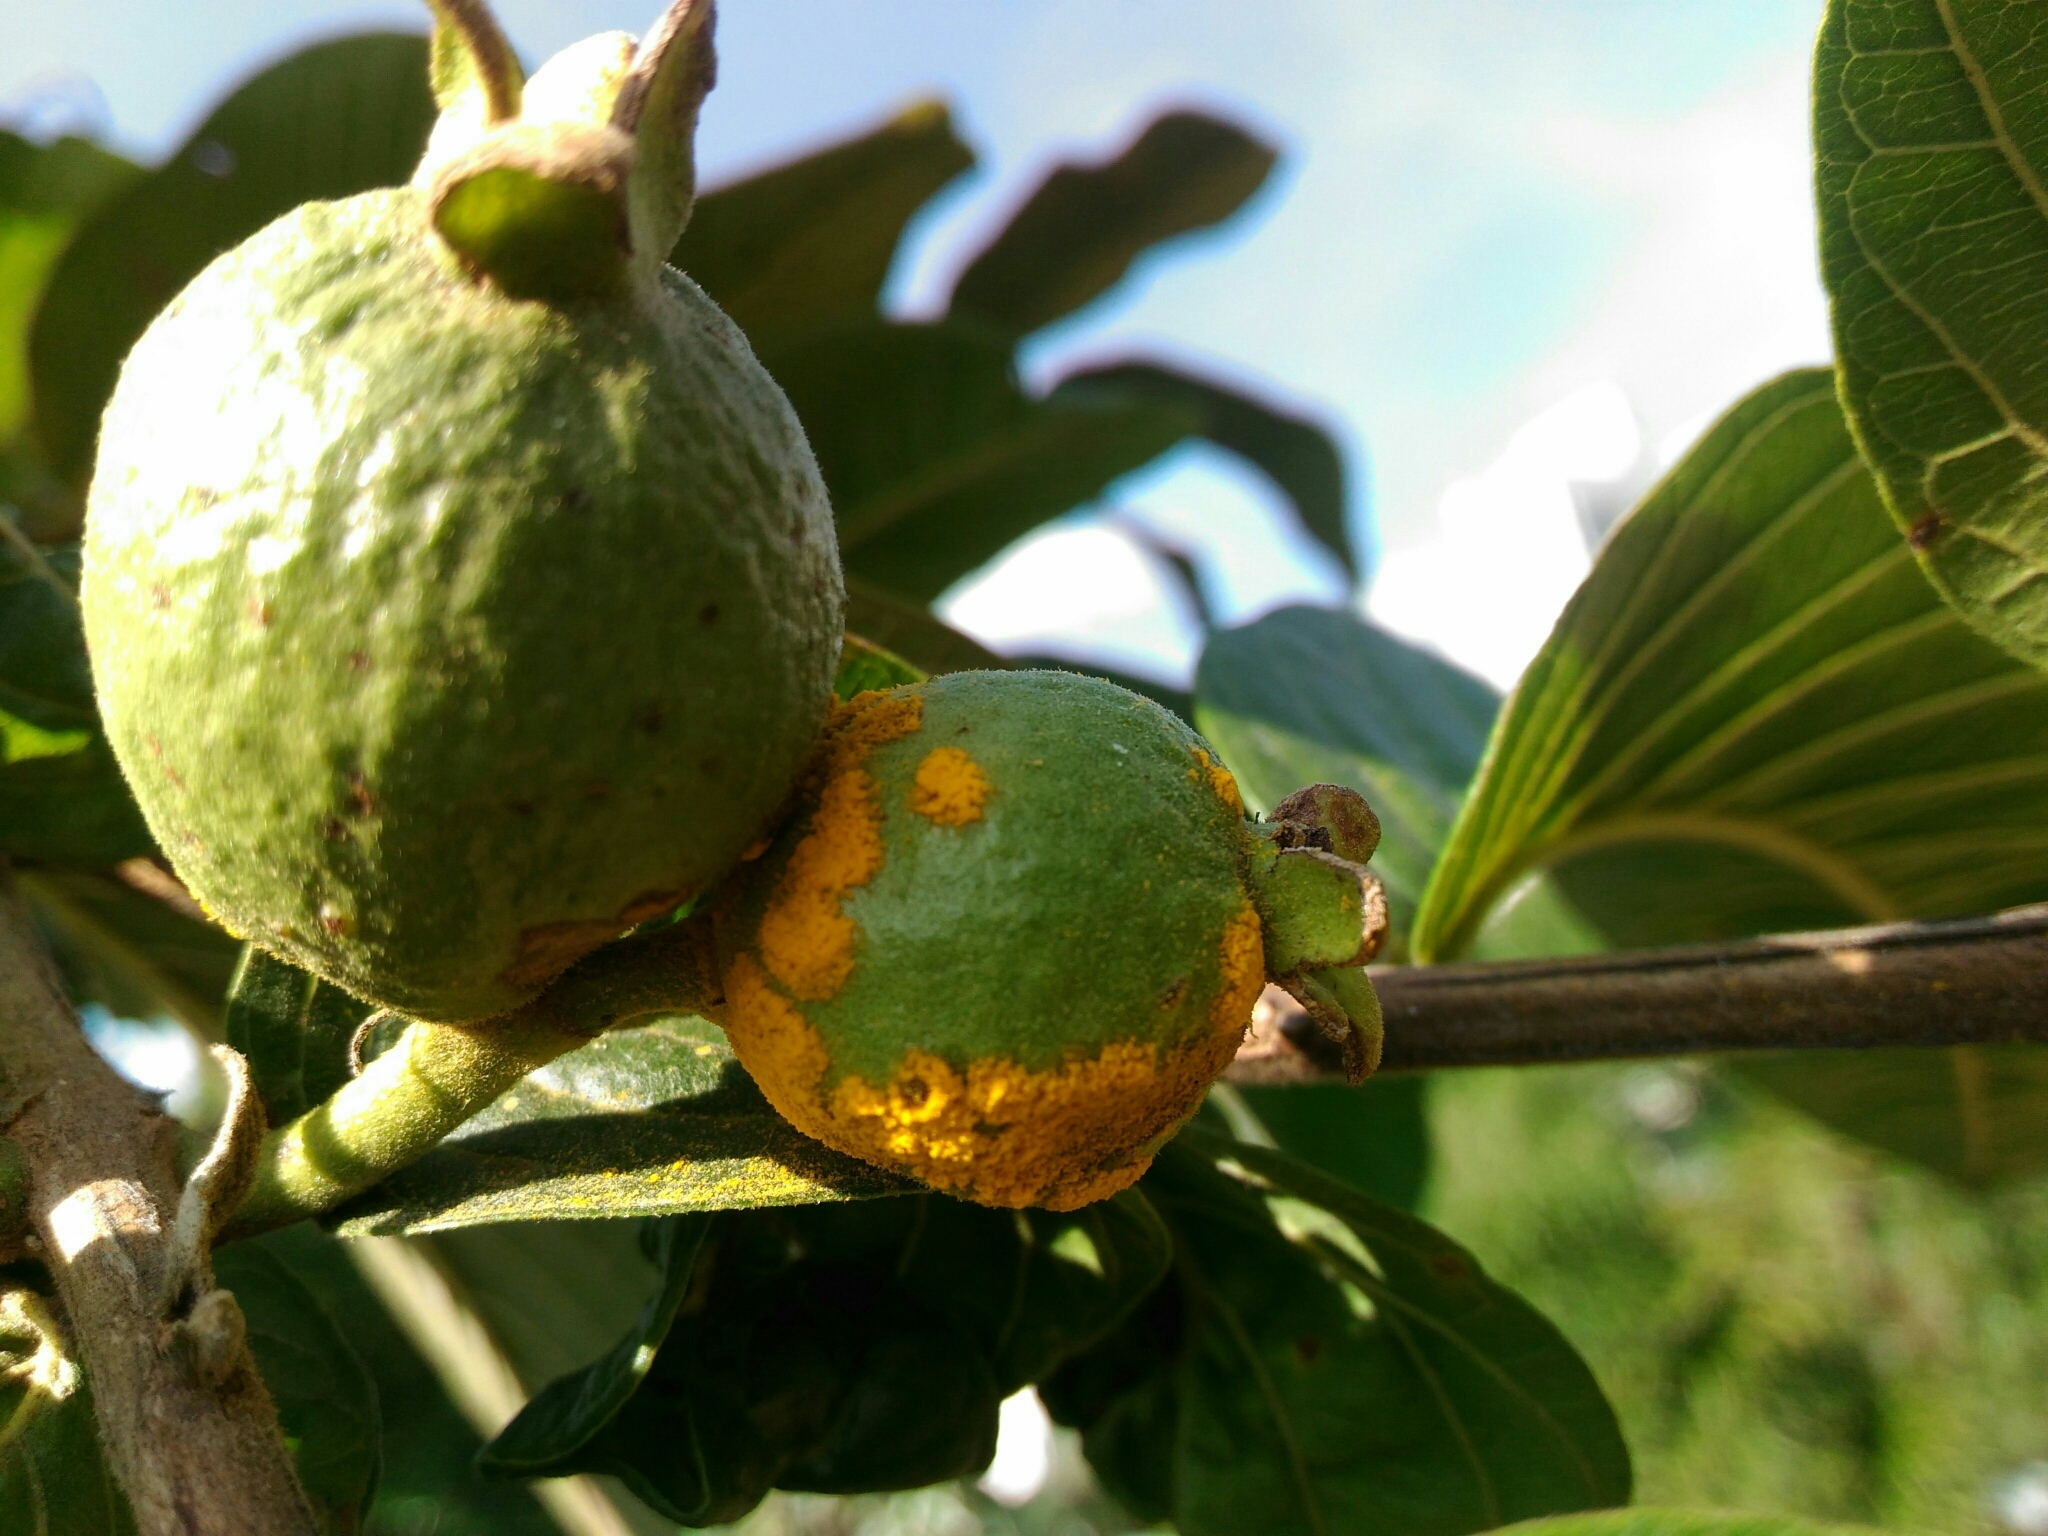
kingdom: Plantae
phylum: Tracheophyta
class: Magnoliopsida
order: Myrtales
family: Myrtaceae
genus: Psidium
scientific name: Psidium guajava
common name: Guava
